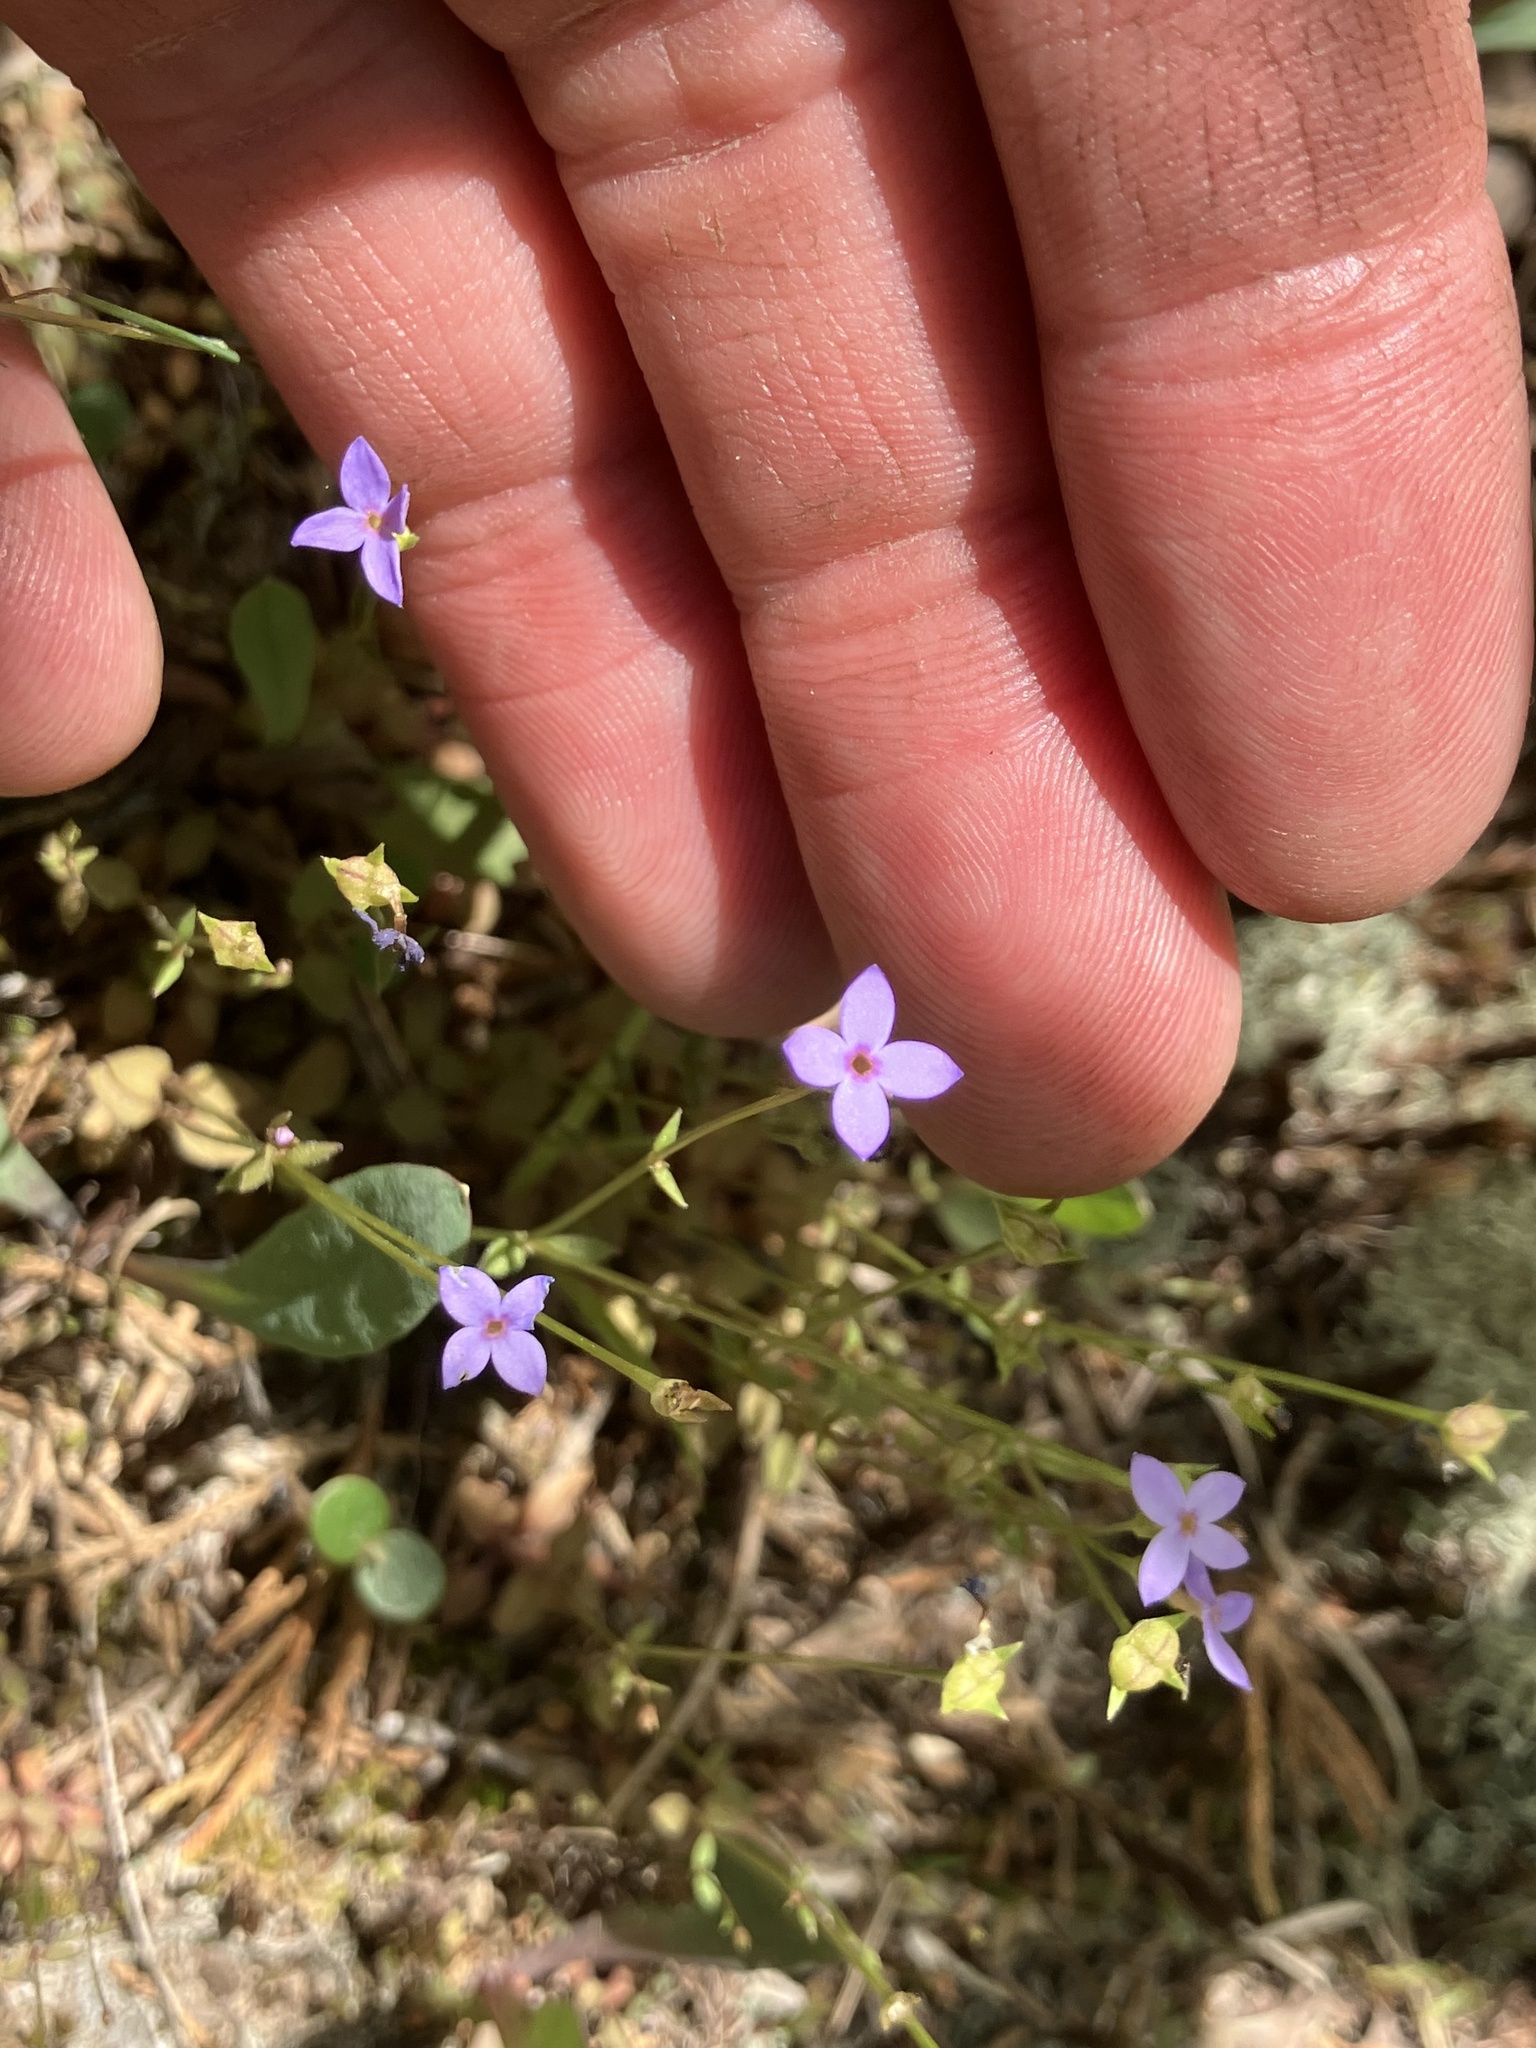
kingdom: Plantae
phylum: Tracheophyta
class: Magnoliopsida
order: Gentianales
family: Rubiaceae
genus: Houstonia
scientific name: Houstonia pusilla
